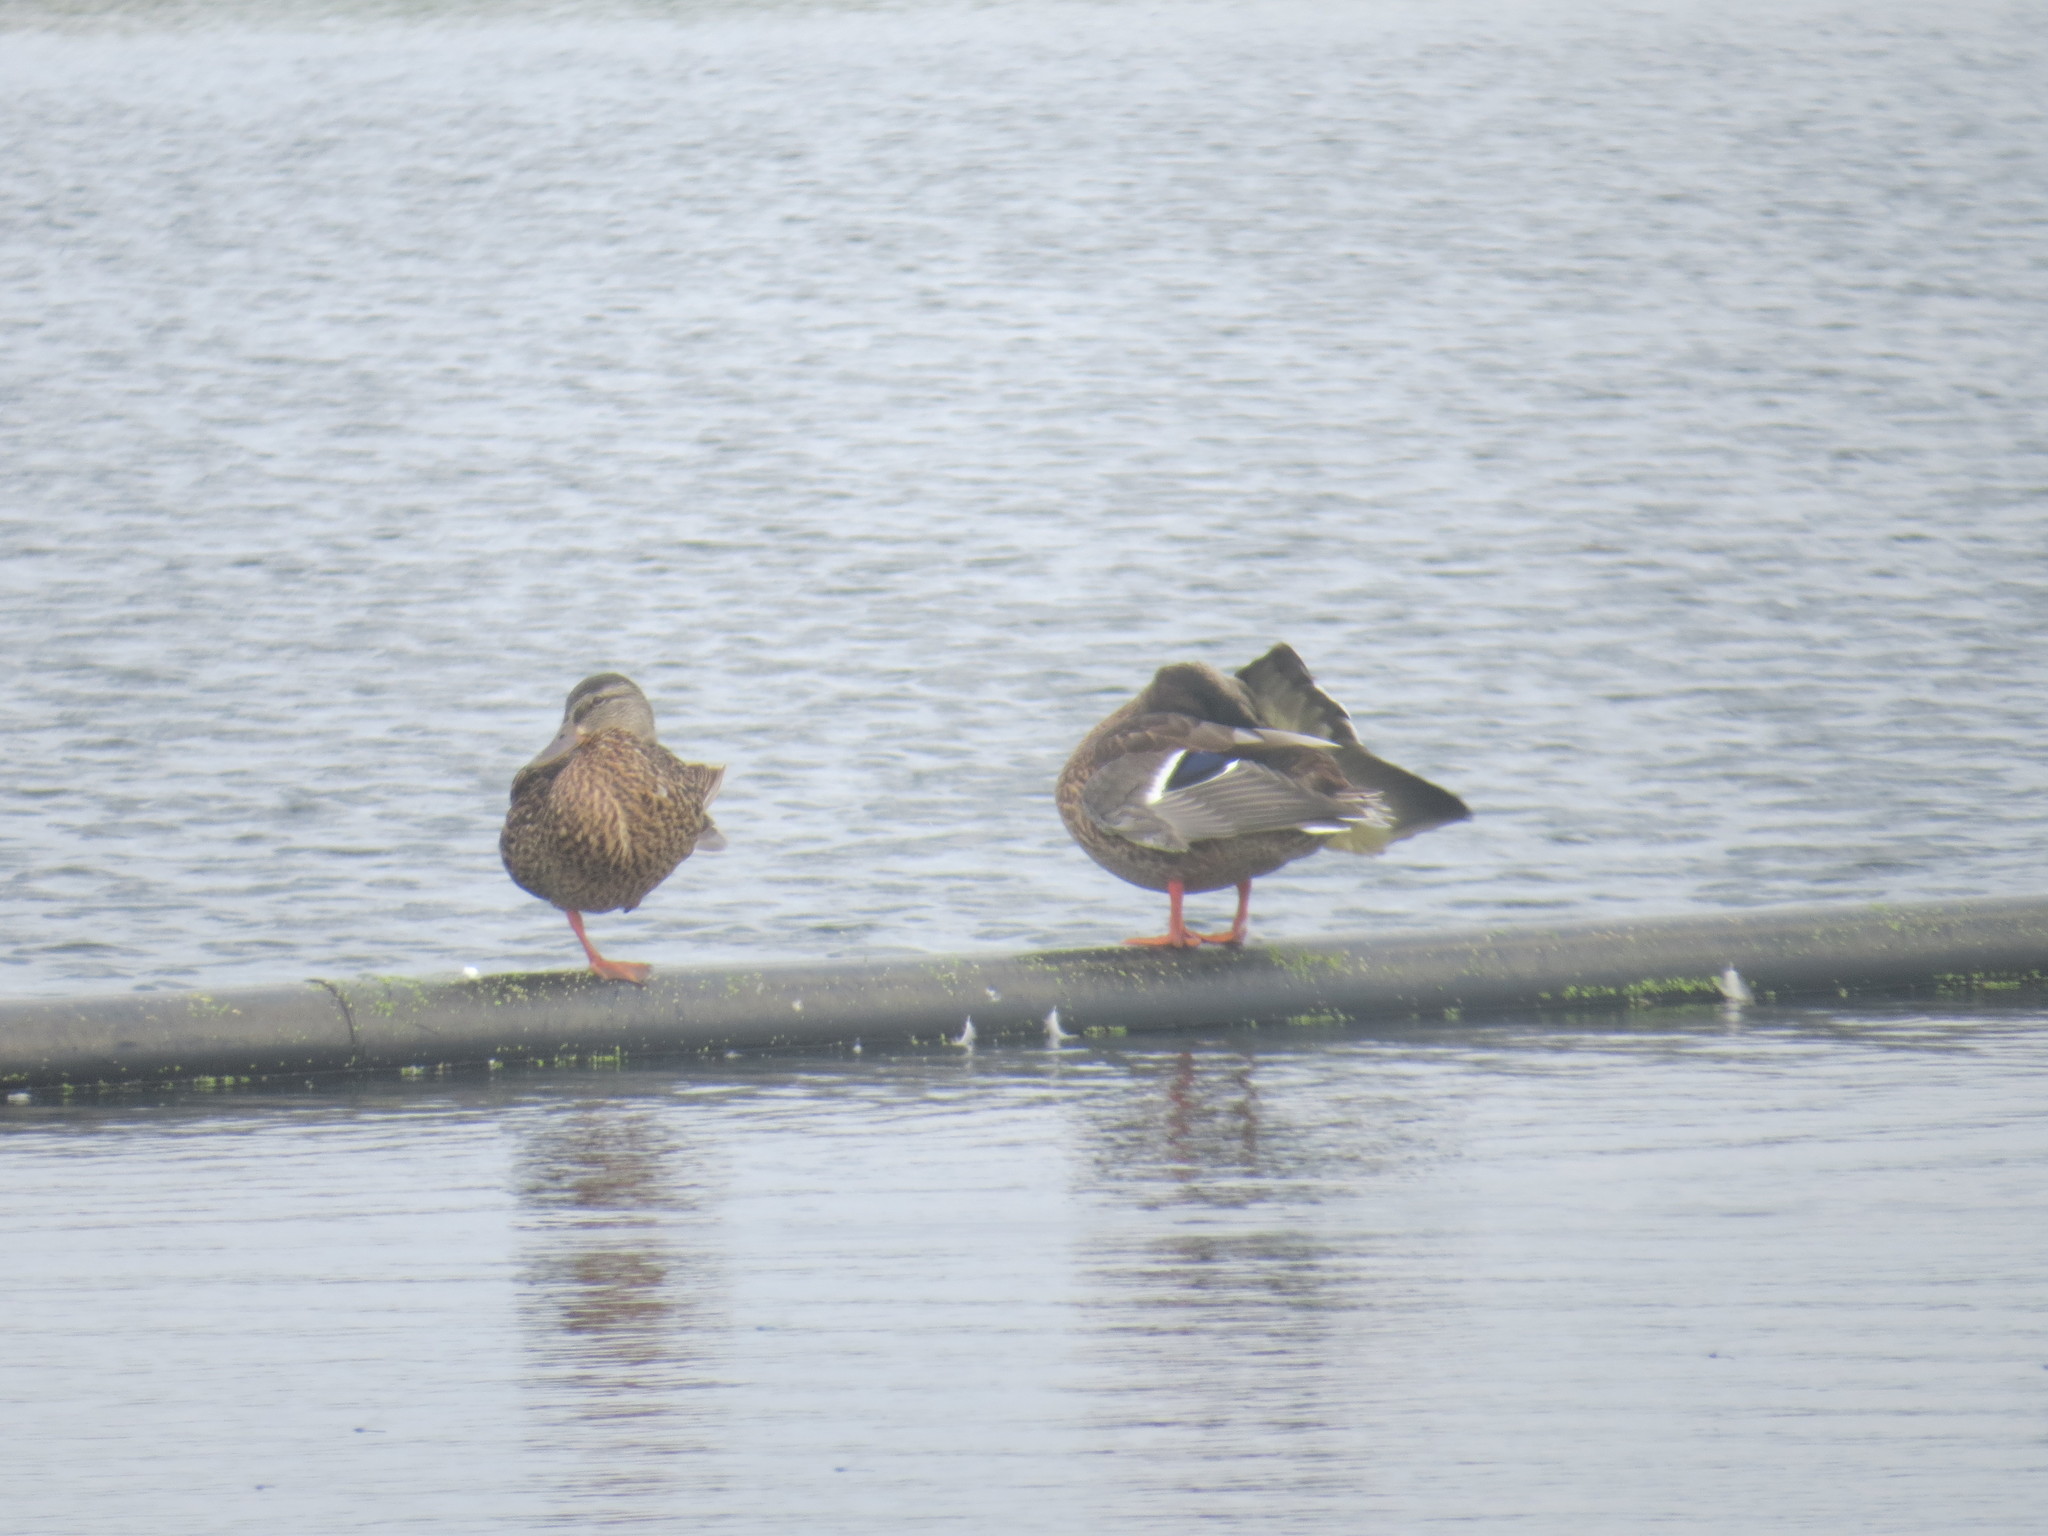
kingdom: Animalia
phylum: Chordata
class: Aves
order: Anseriformes
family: Anatidae
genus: Anas
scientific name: Anas platyrhynchos
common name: Mallard
